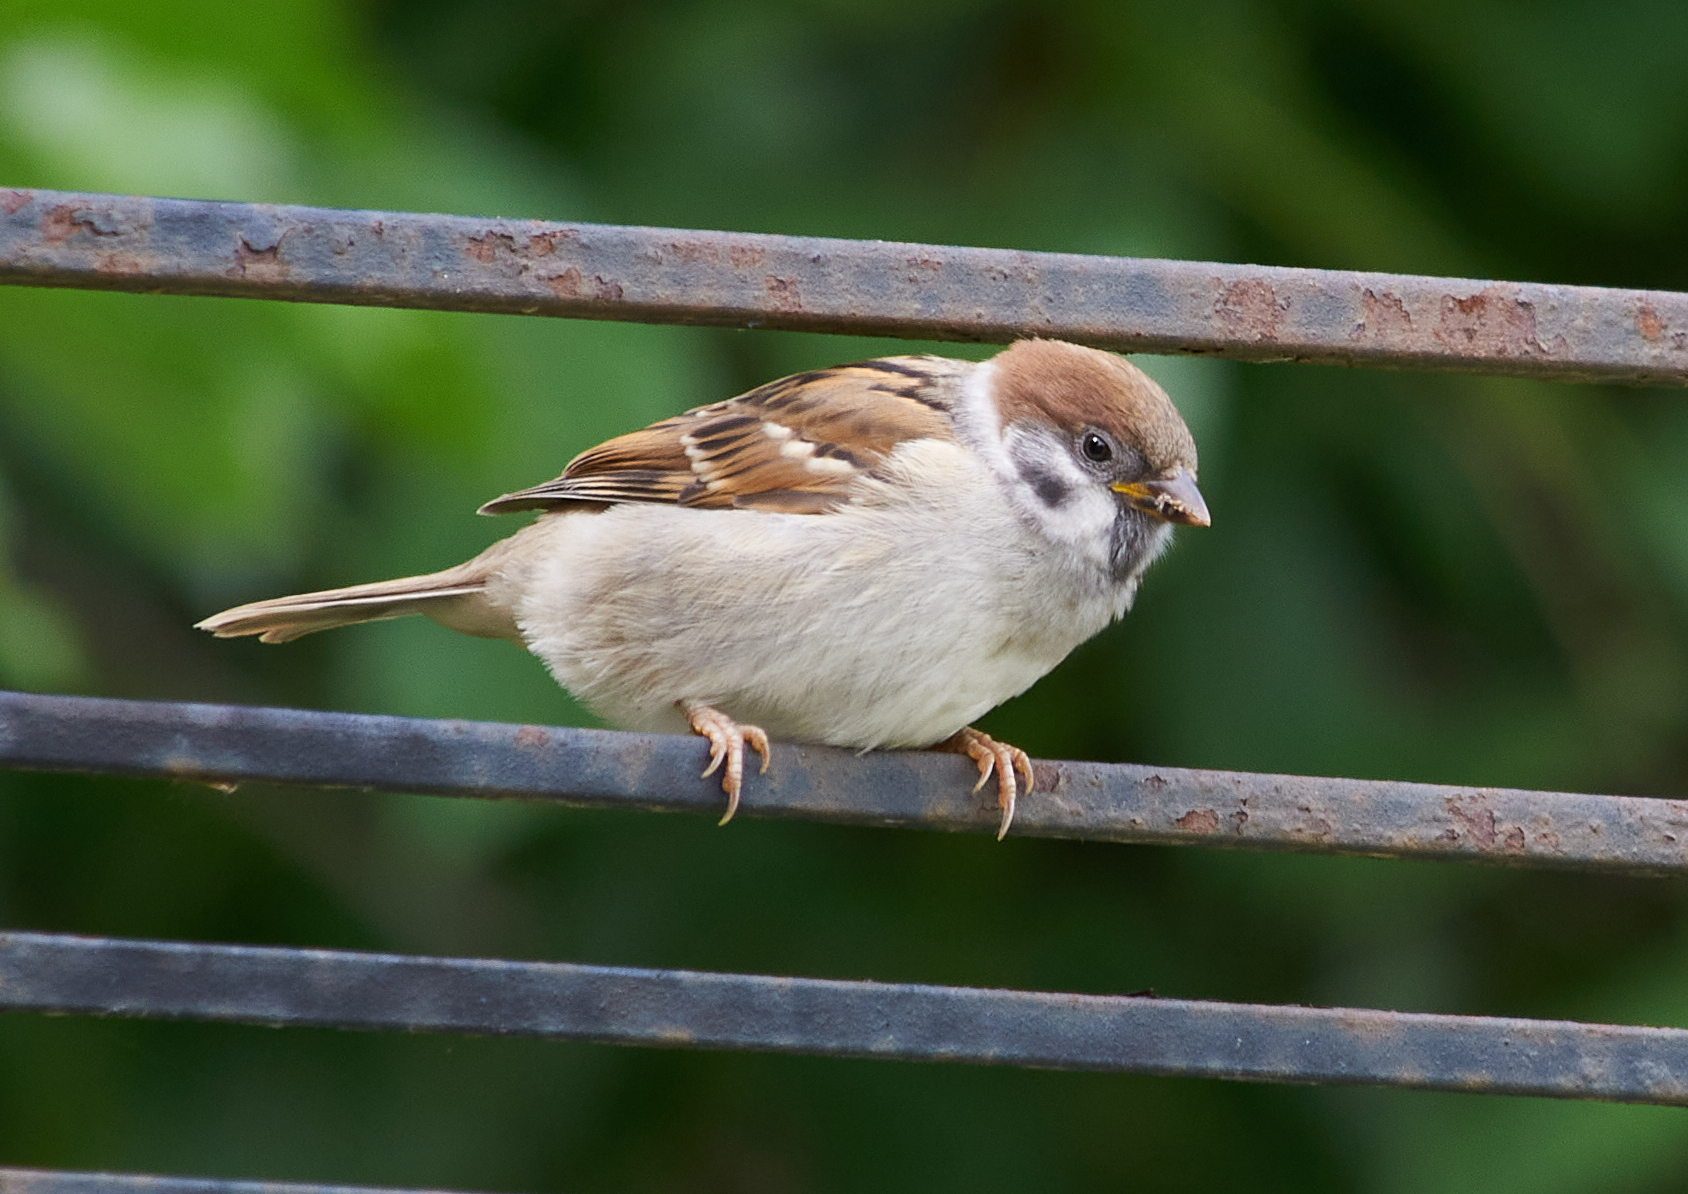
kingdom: Animalia
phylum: Chordata
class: Aves
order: Passeriformes
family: Passeridae
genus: Passer
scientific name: Passer montanus
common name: Eurasian tree sparrow
